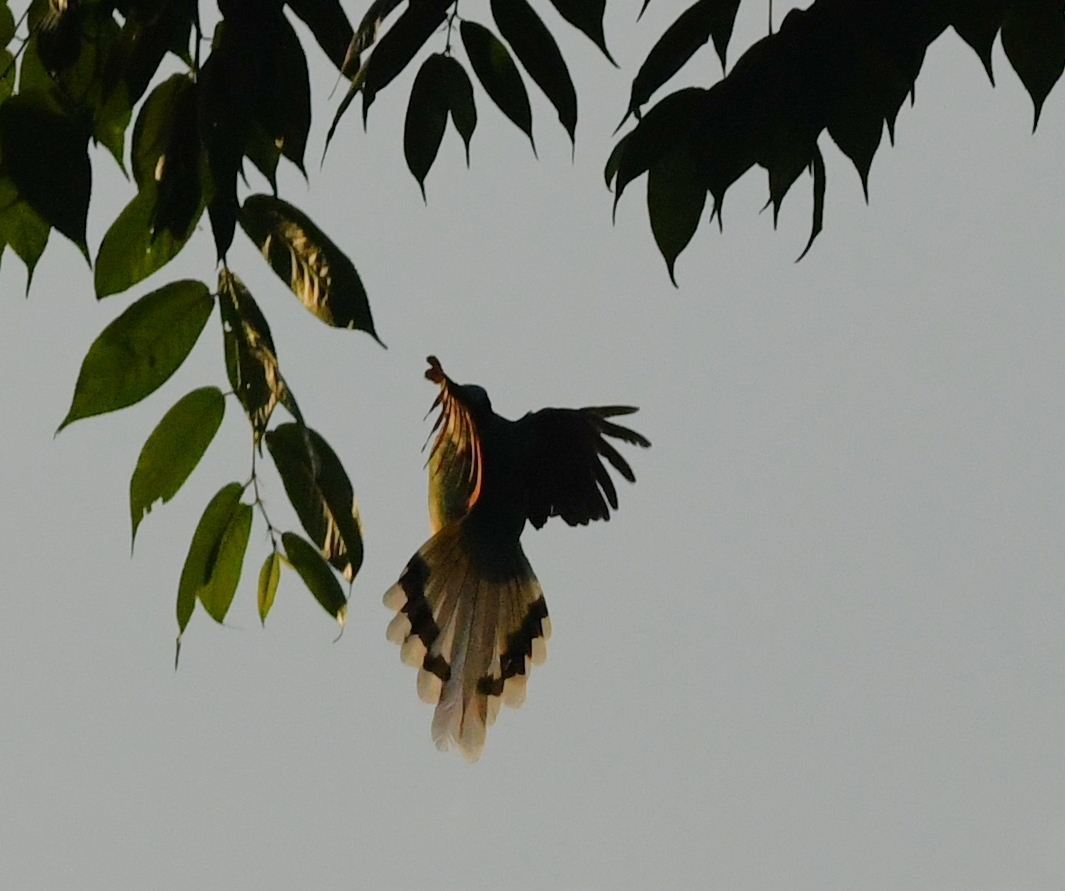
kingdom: Animalia
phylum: Chordata
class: Aves
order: Passeriformes
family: Corvidae
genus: Cissa
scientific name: Cissa chinensis
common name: Common green magpie
